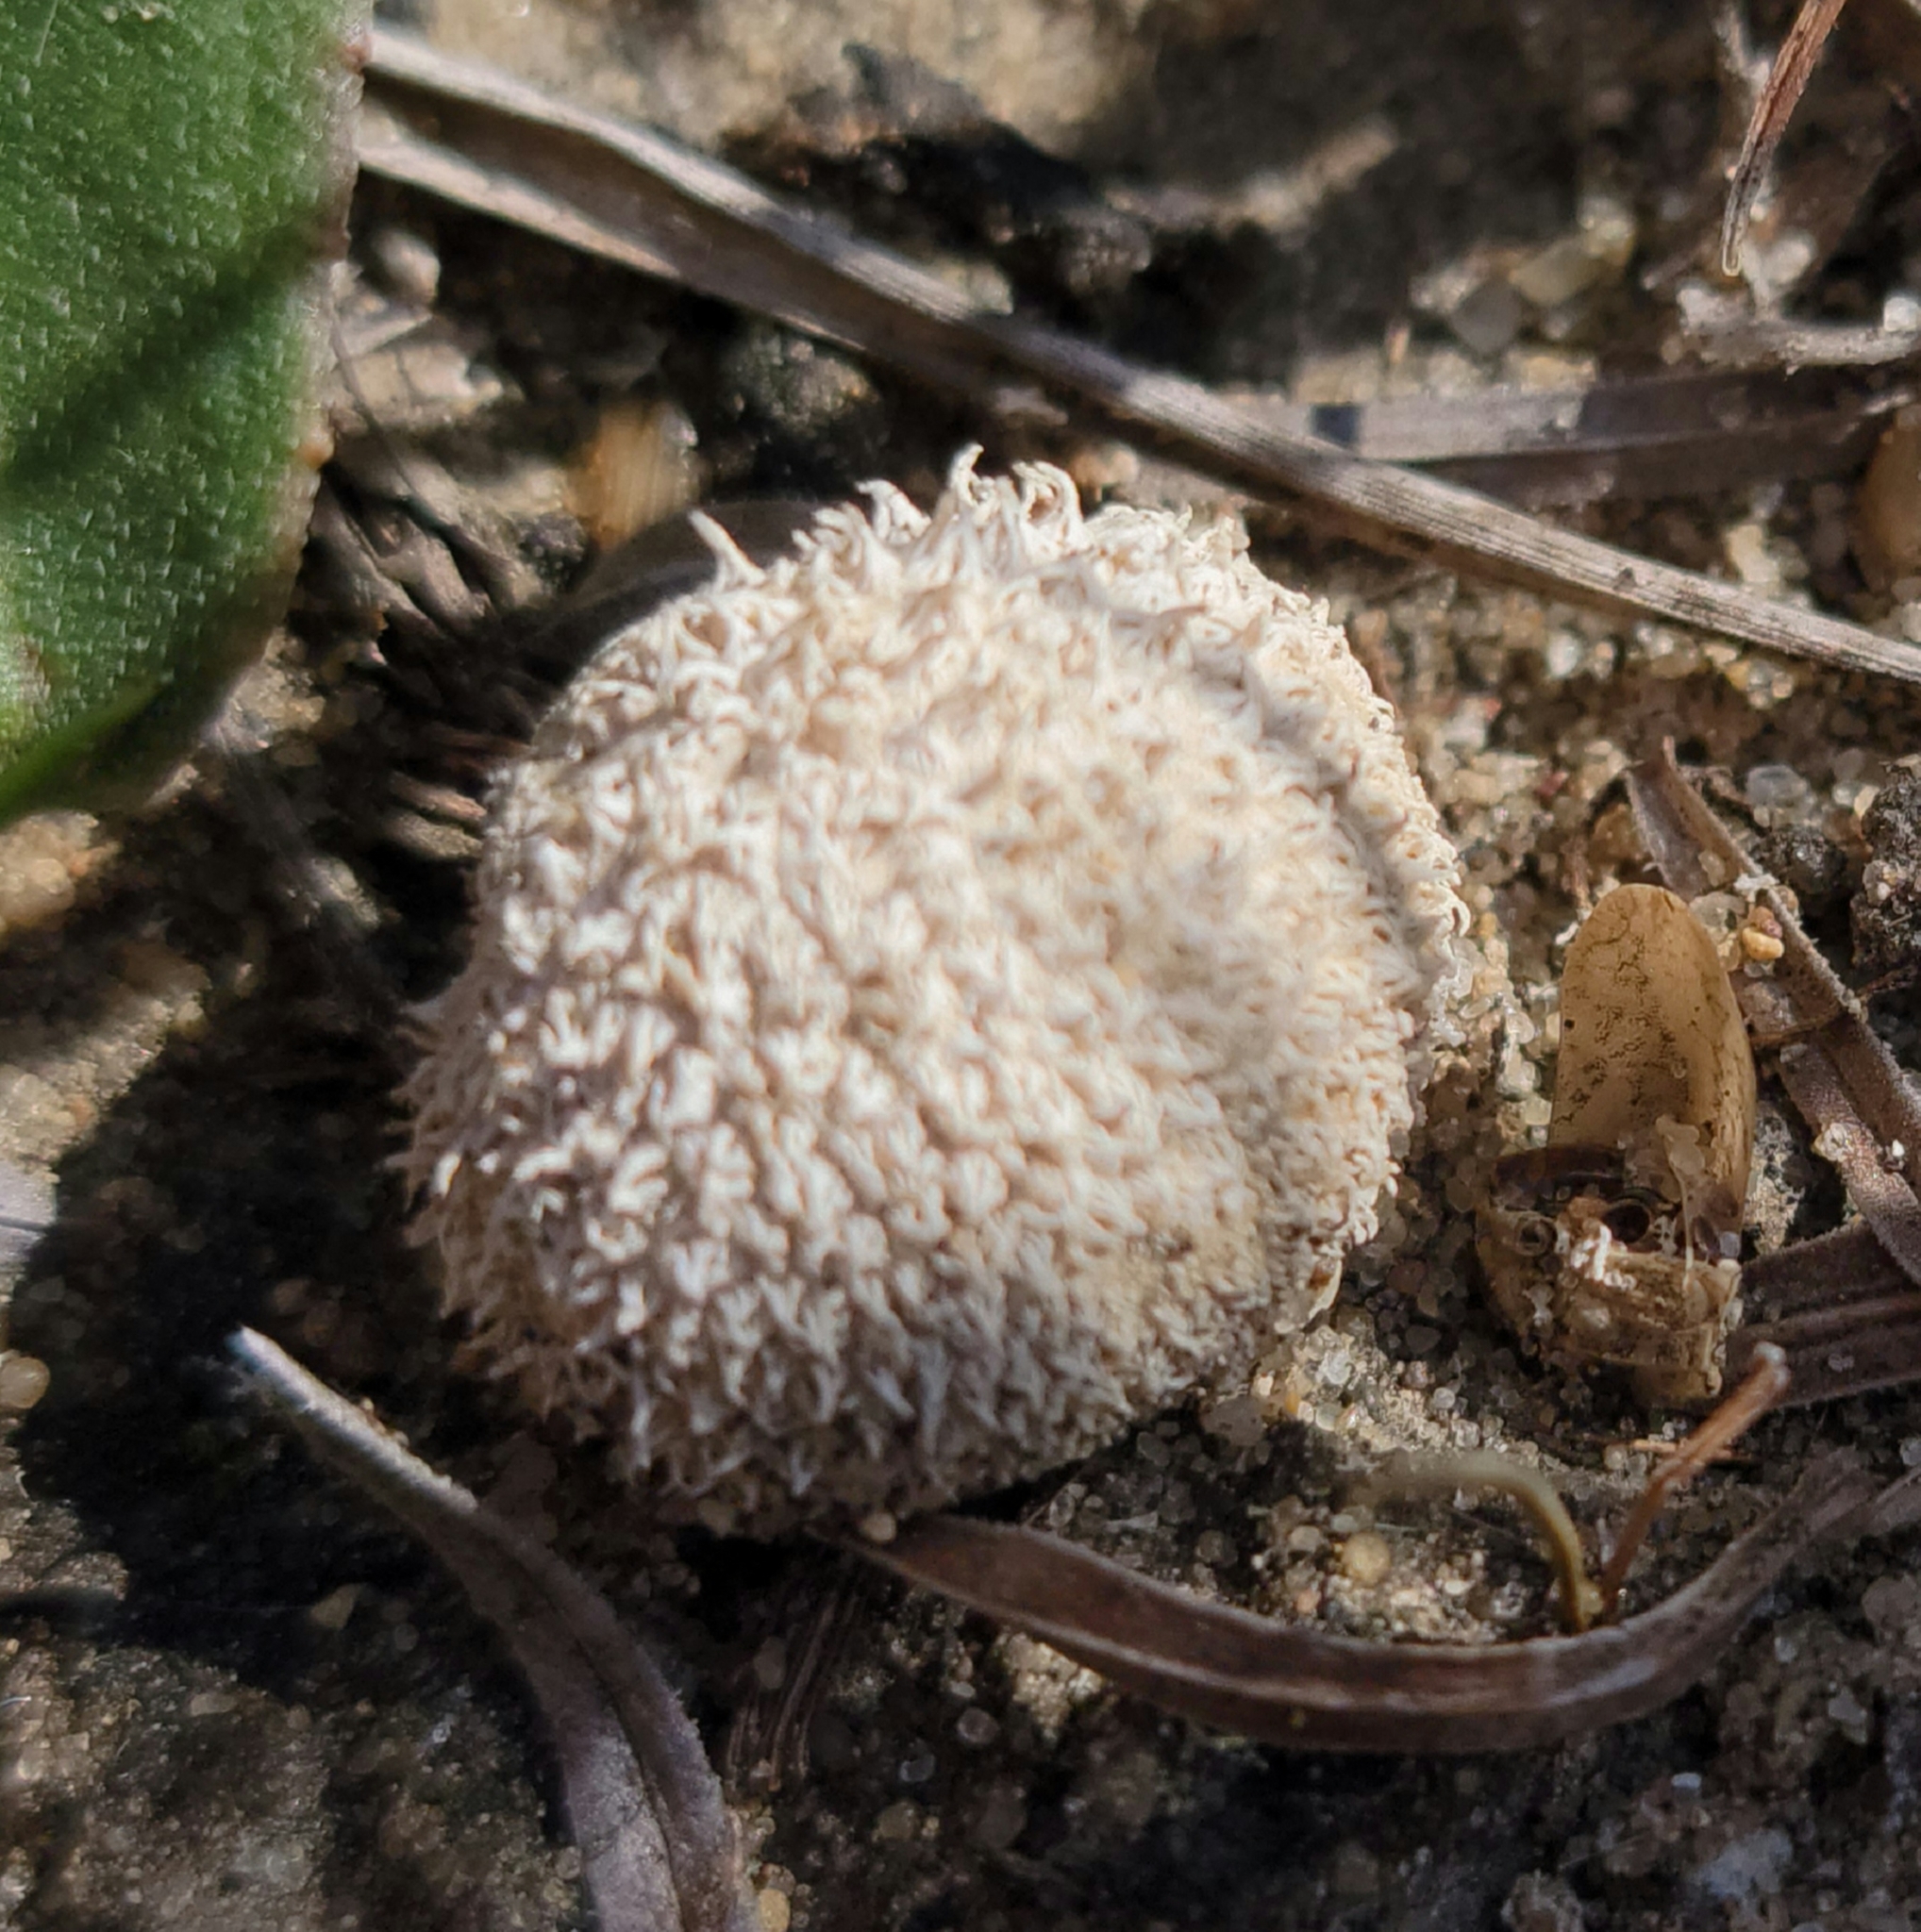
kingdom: Fungi
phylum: Basidiomycota
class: Agaricomycetes
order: Agaricales
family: Agaricaceae
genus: Lycoperdon
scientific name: Lycoperdon marginatum
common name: Peeling puffball
